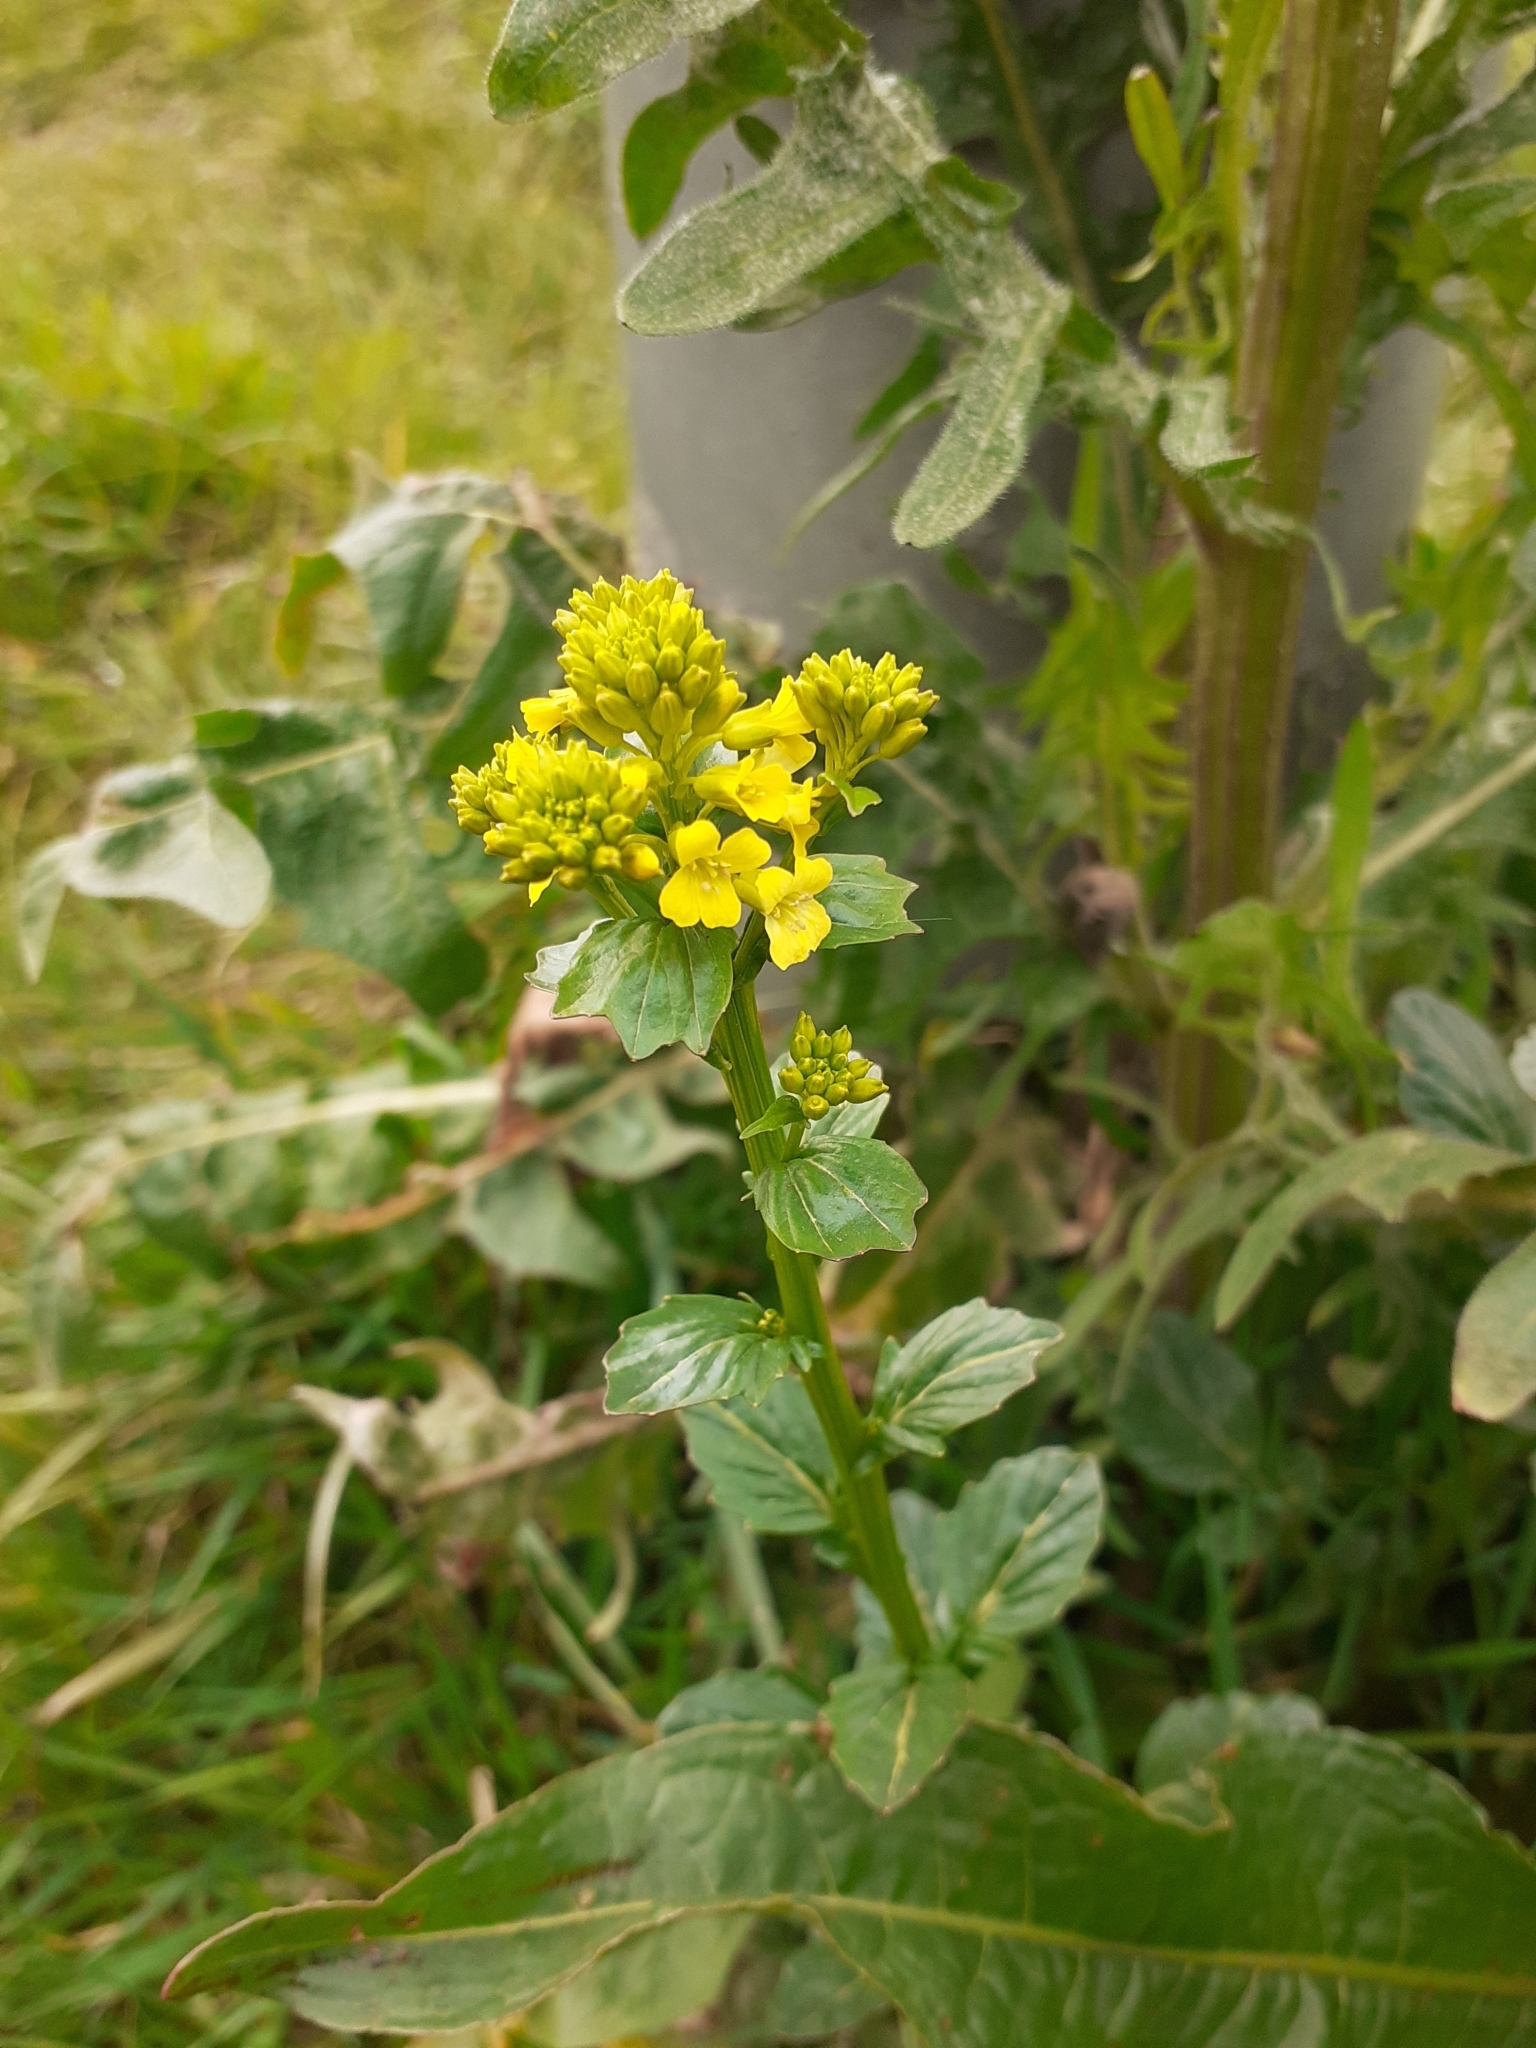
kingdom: Plantae
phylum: Tracheophyta
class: Magnoliopsida
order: Brassicales
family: Brassicaceae
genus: Barbarea
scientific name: Barbarea vulgaris
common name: Cressy-greens
